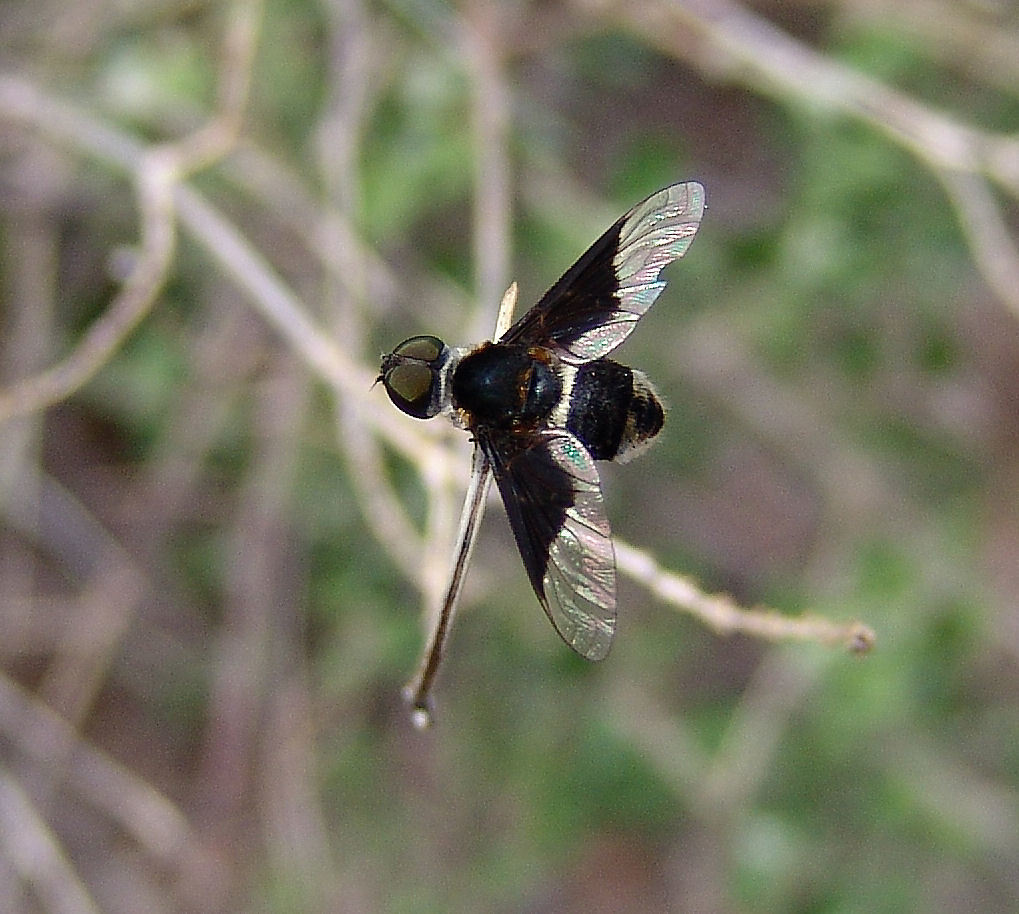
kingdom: Animalia
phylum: Arthropoda
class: Insecta
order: Diptera
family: Bombyliidae
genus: Ins
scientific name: Ins curtus
